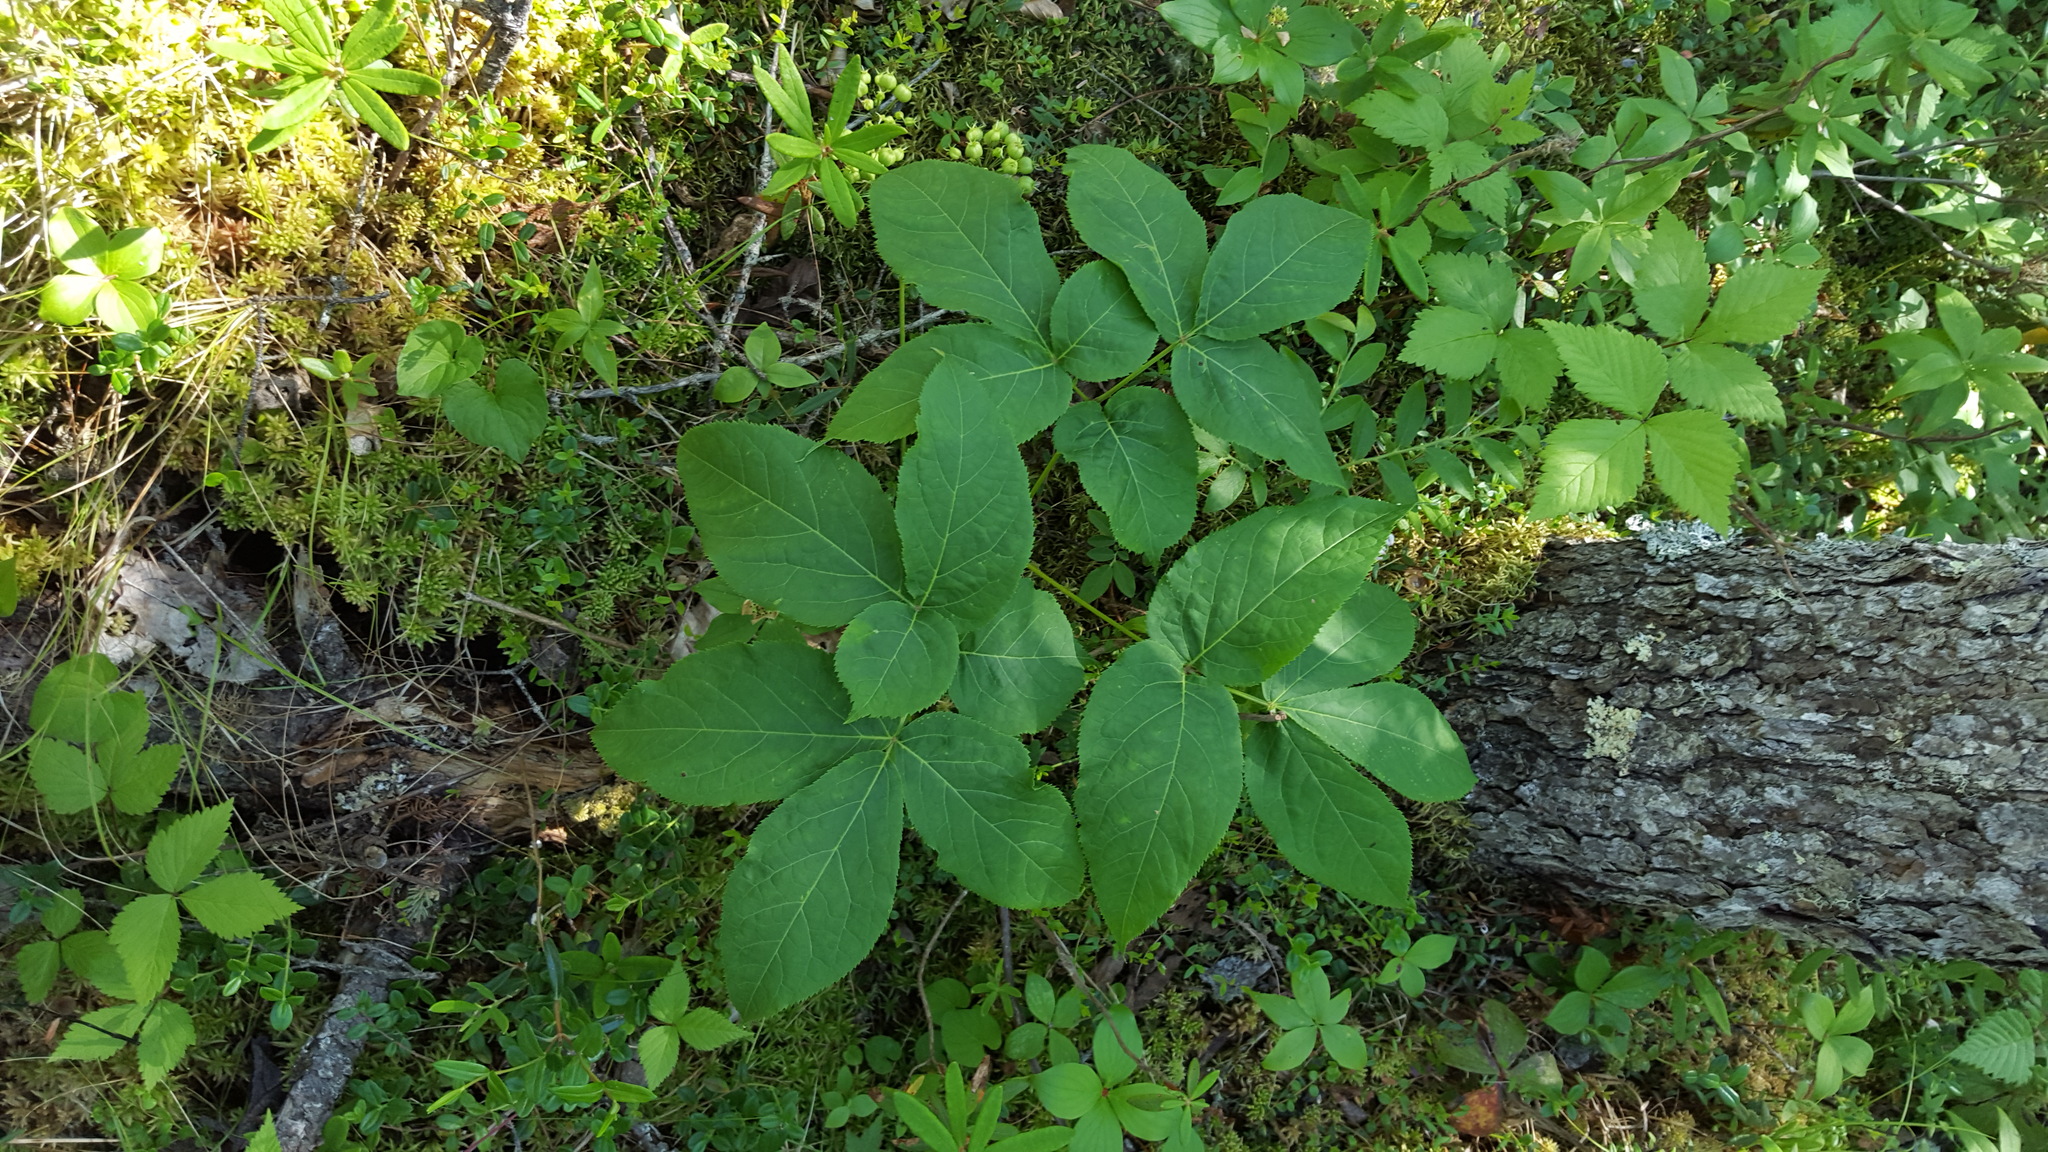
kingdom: Plantae
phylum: Tracheophyta
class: Magnoliopsida
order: Apiales
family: Araliaceae
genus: Aralia
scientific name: Aralia nudicaulis
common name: Wild sarsaparilla
